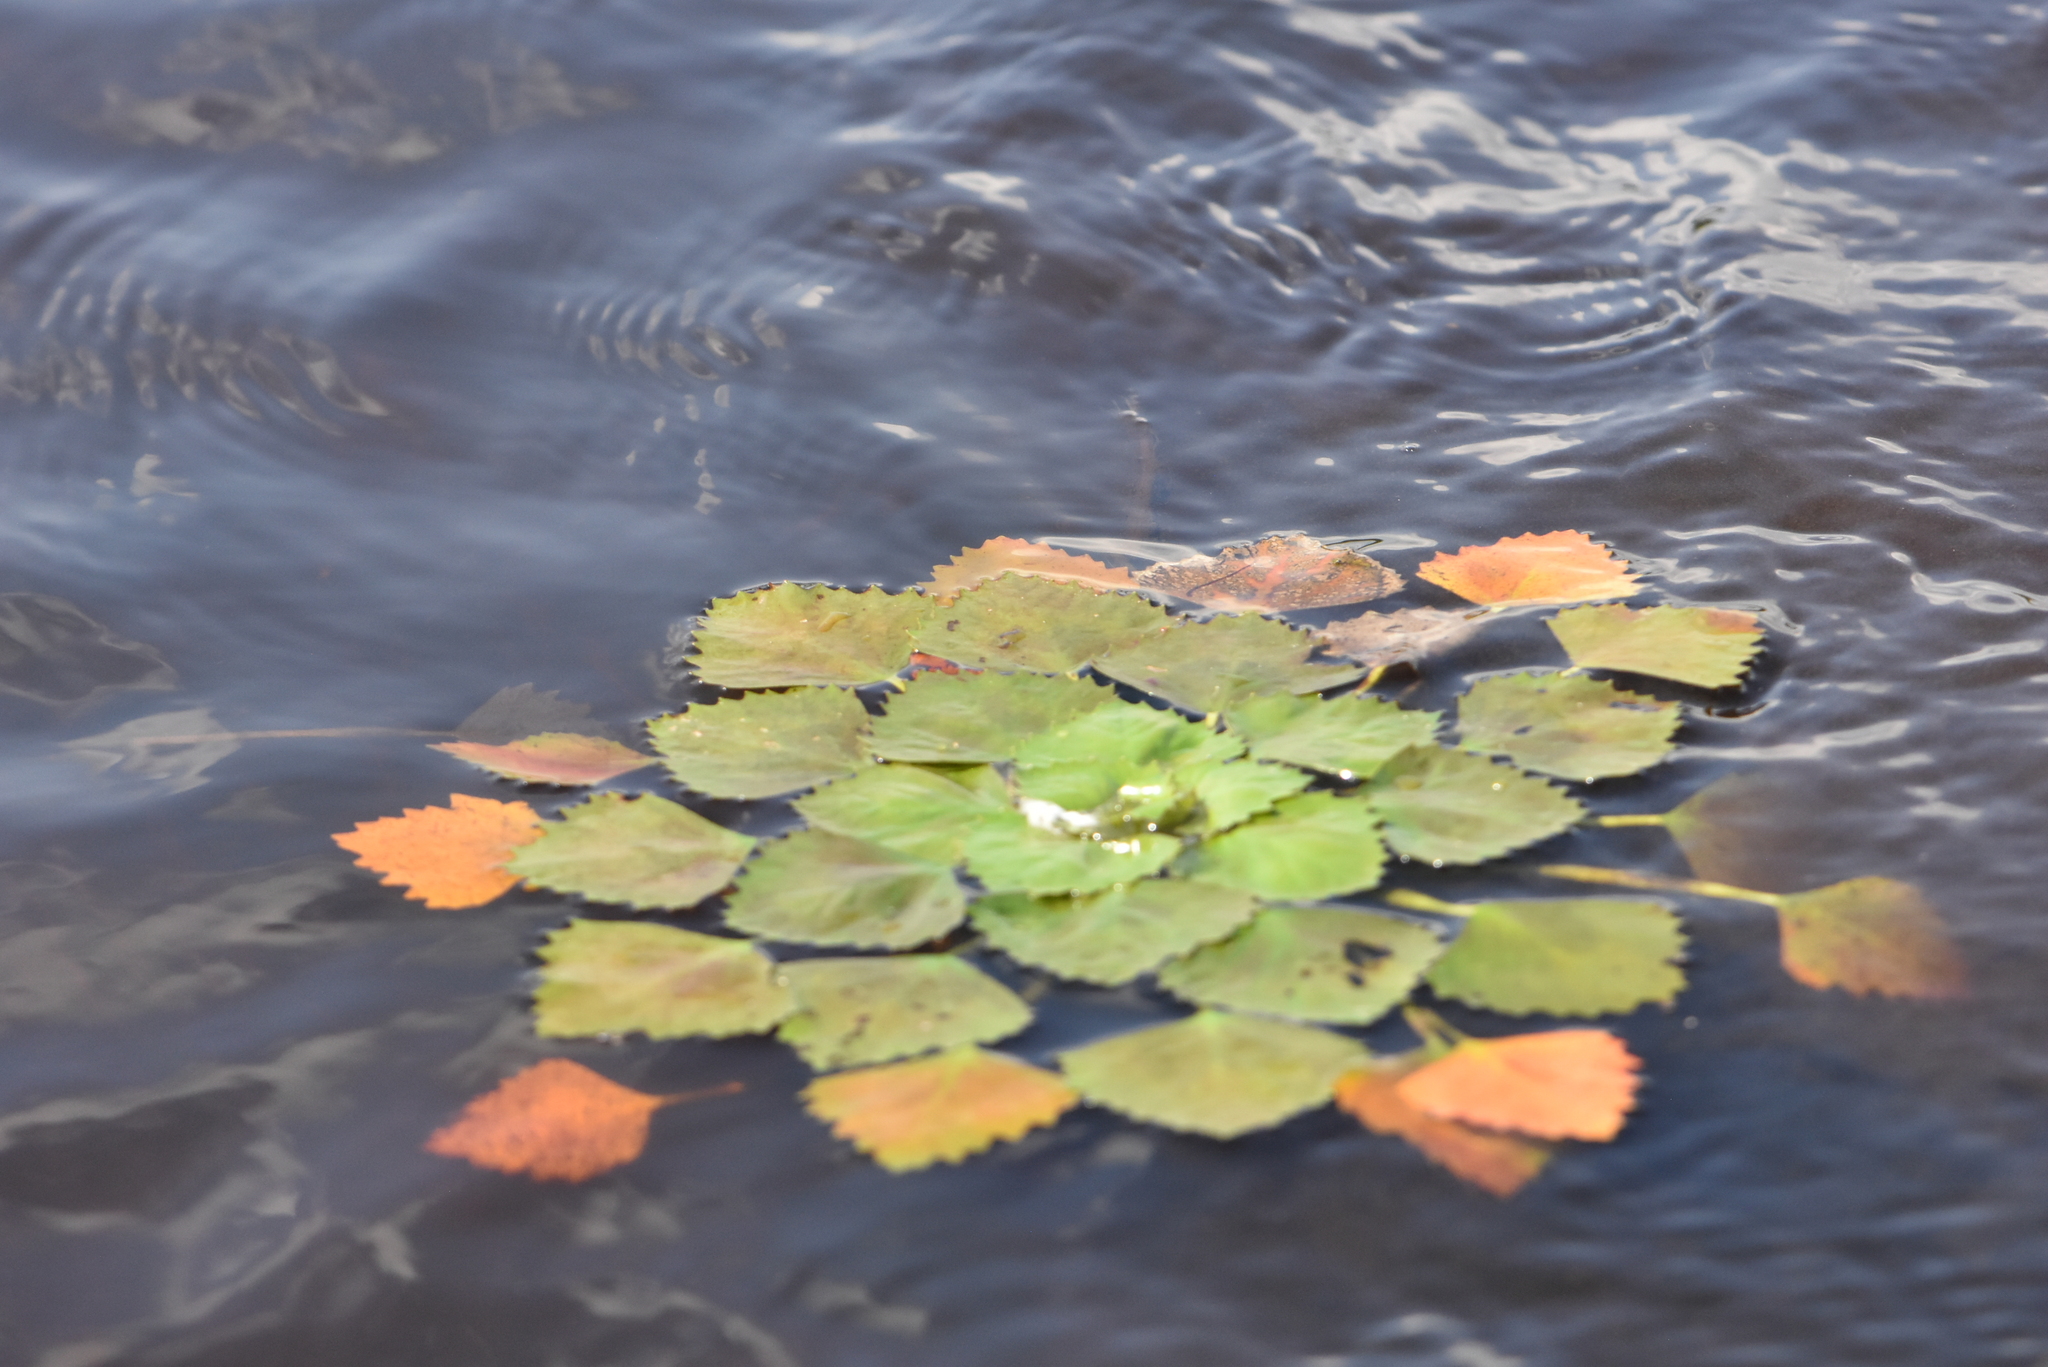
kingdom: Plantae
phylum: Tracheophyta
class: Magnoliopsida
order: Myrtales
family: Lythraceae
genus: Trapa
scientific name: Trapa natans
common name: Water chestnut
